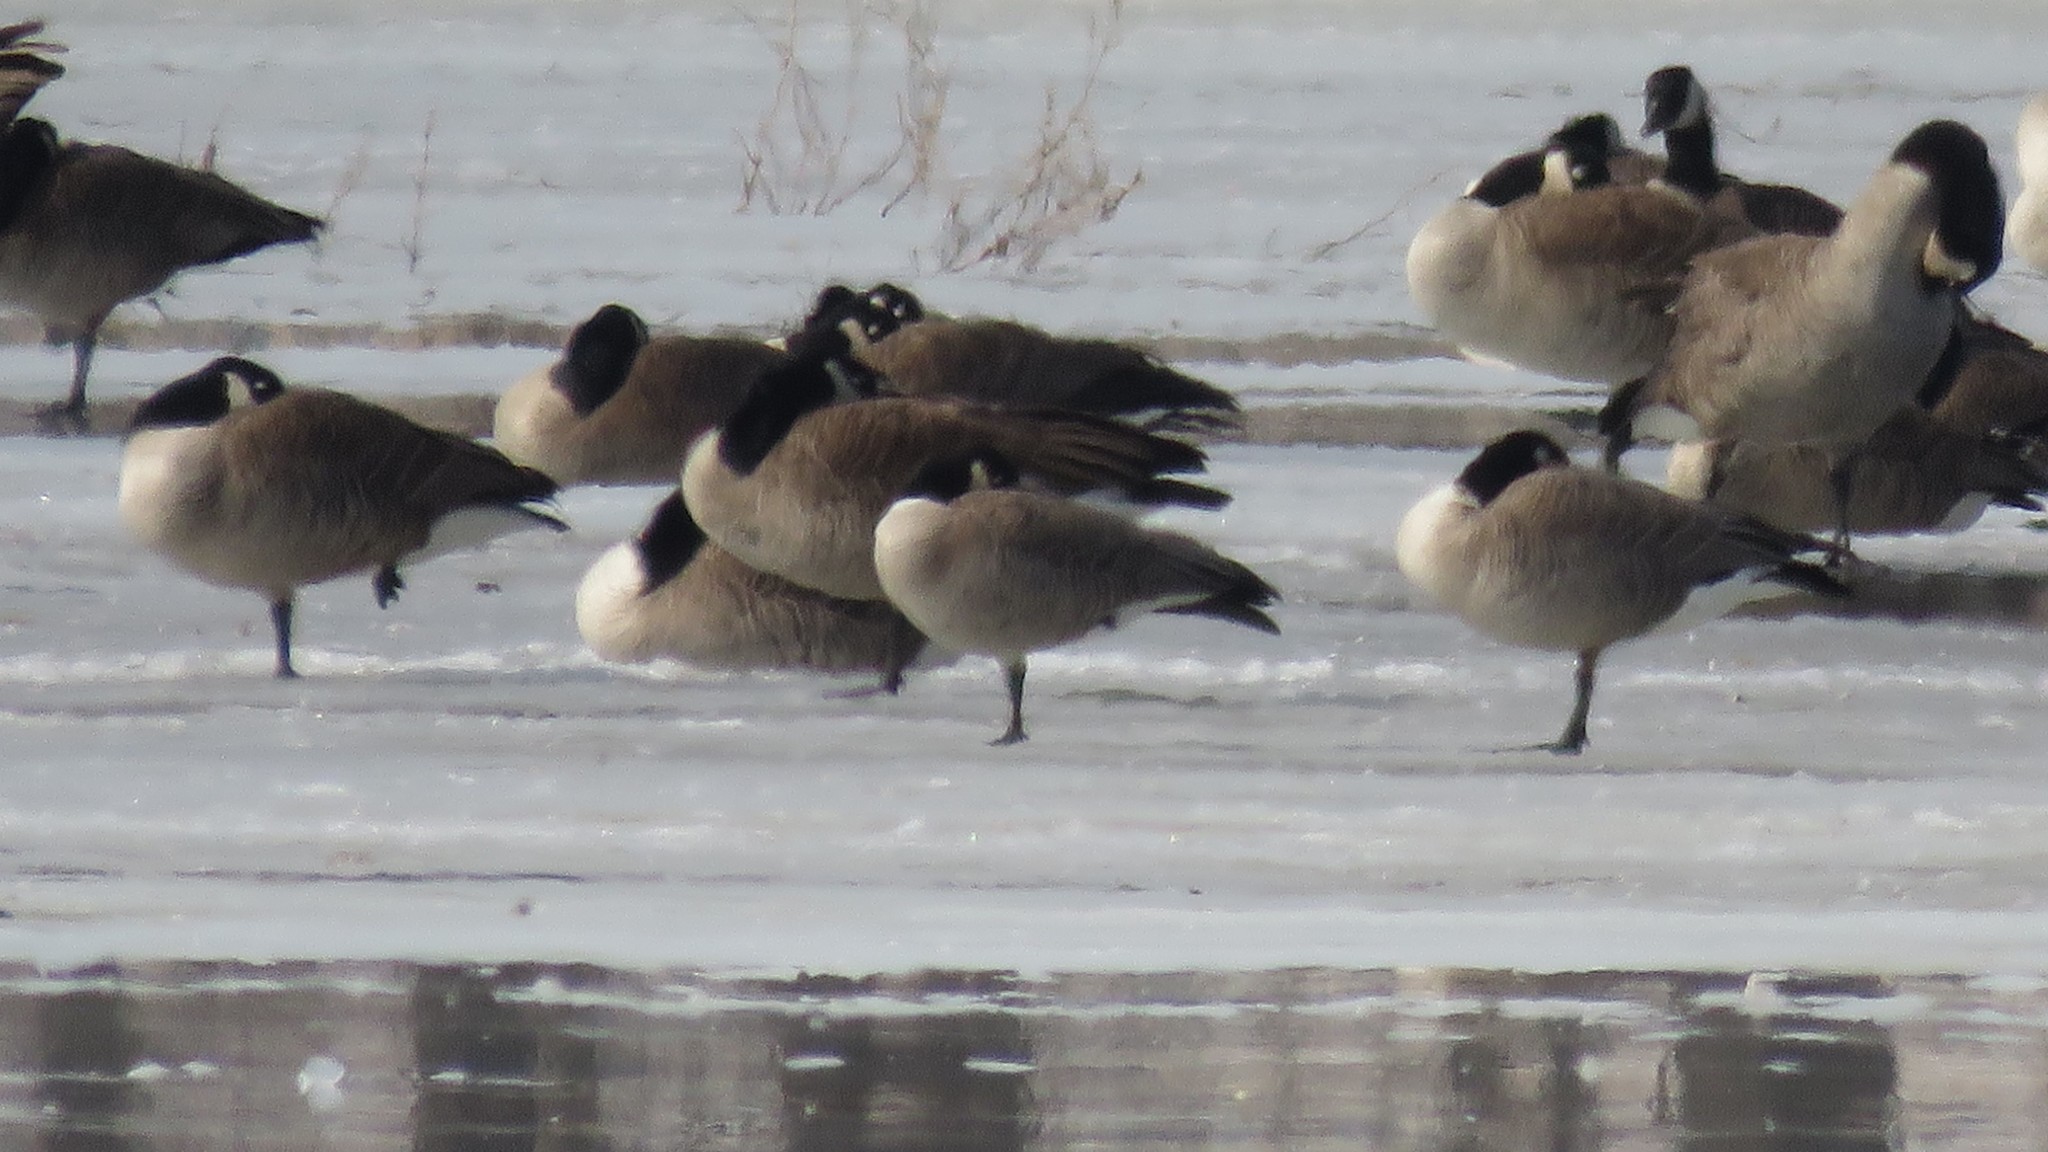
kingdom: Animalia
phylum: Chordata
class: Aves
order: Anseriformes
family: Anatidae
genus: Branta
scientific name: Branta hutchinsii
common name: Cackling goose
